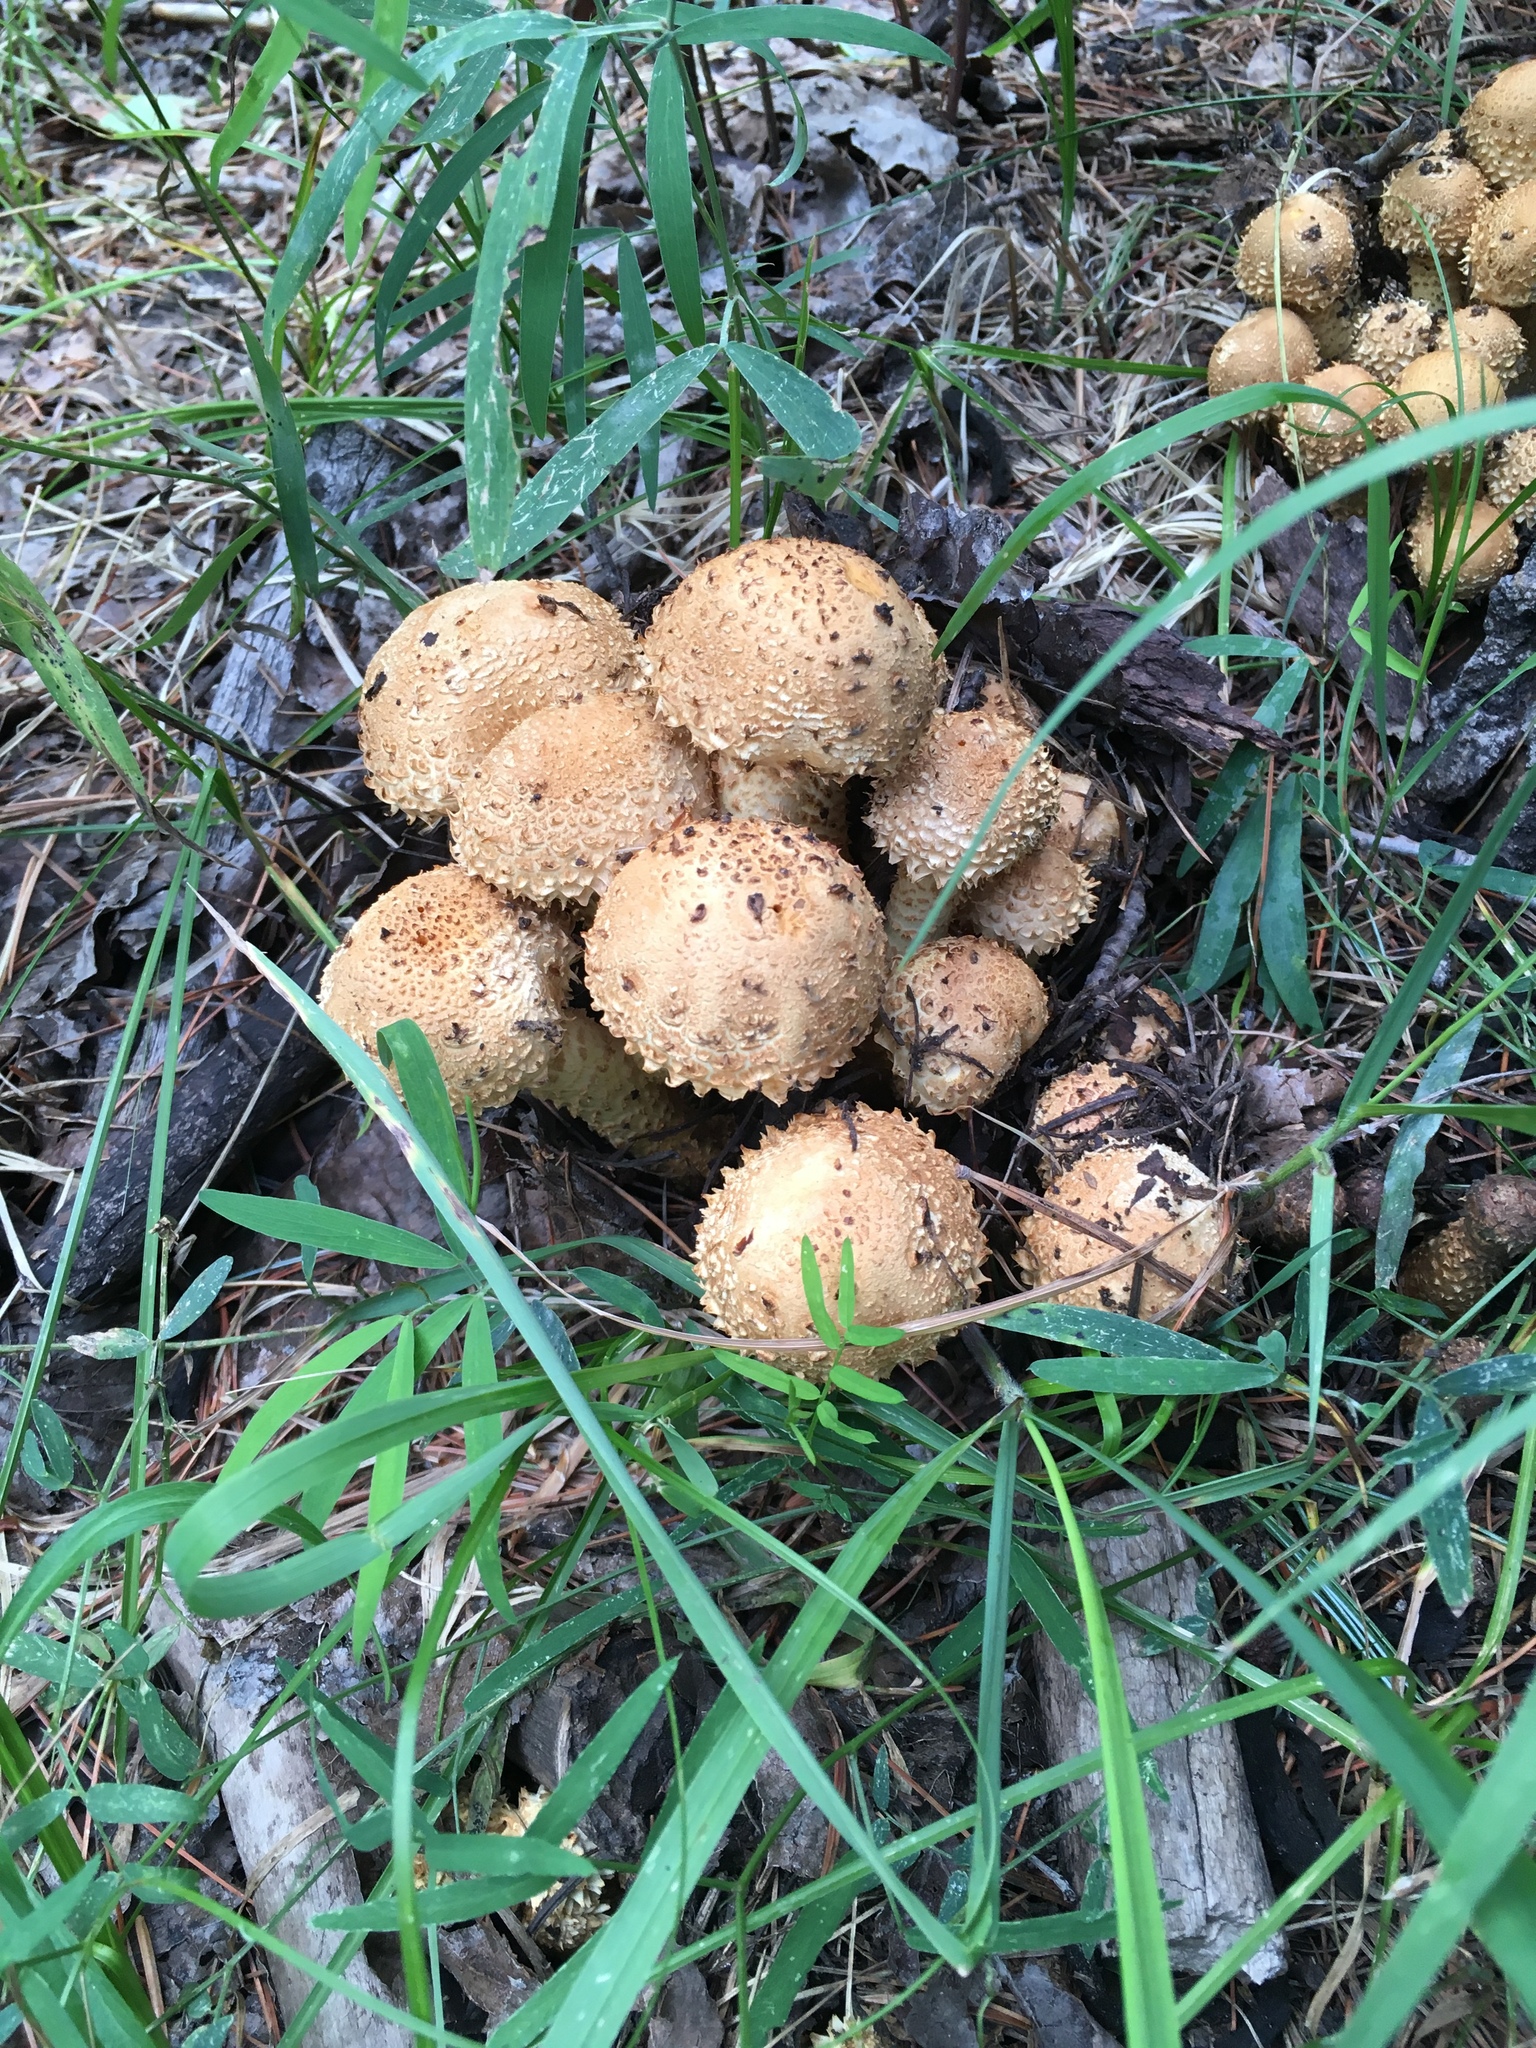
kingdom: Fungi
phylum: Basidiomycota
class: Agaricomycetes
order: Agaricales
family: Strophariaceae
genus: Pholiota
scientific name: Pholiota squarrosa
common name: Shaggy pholiota
